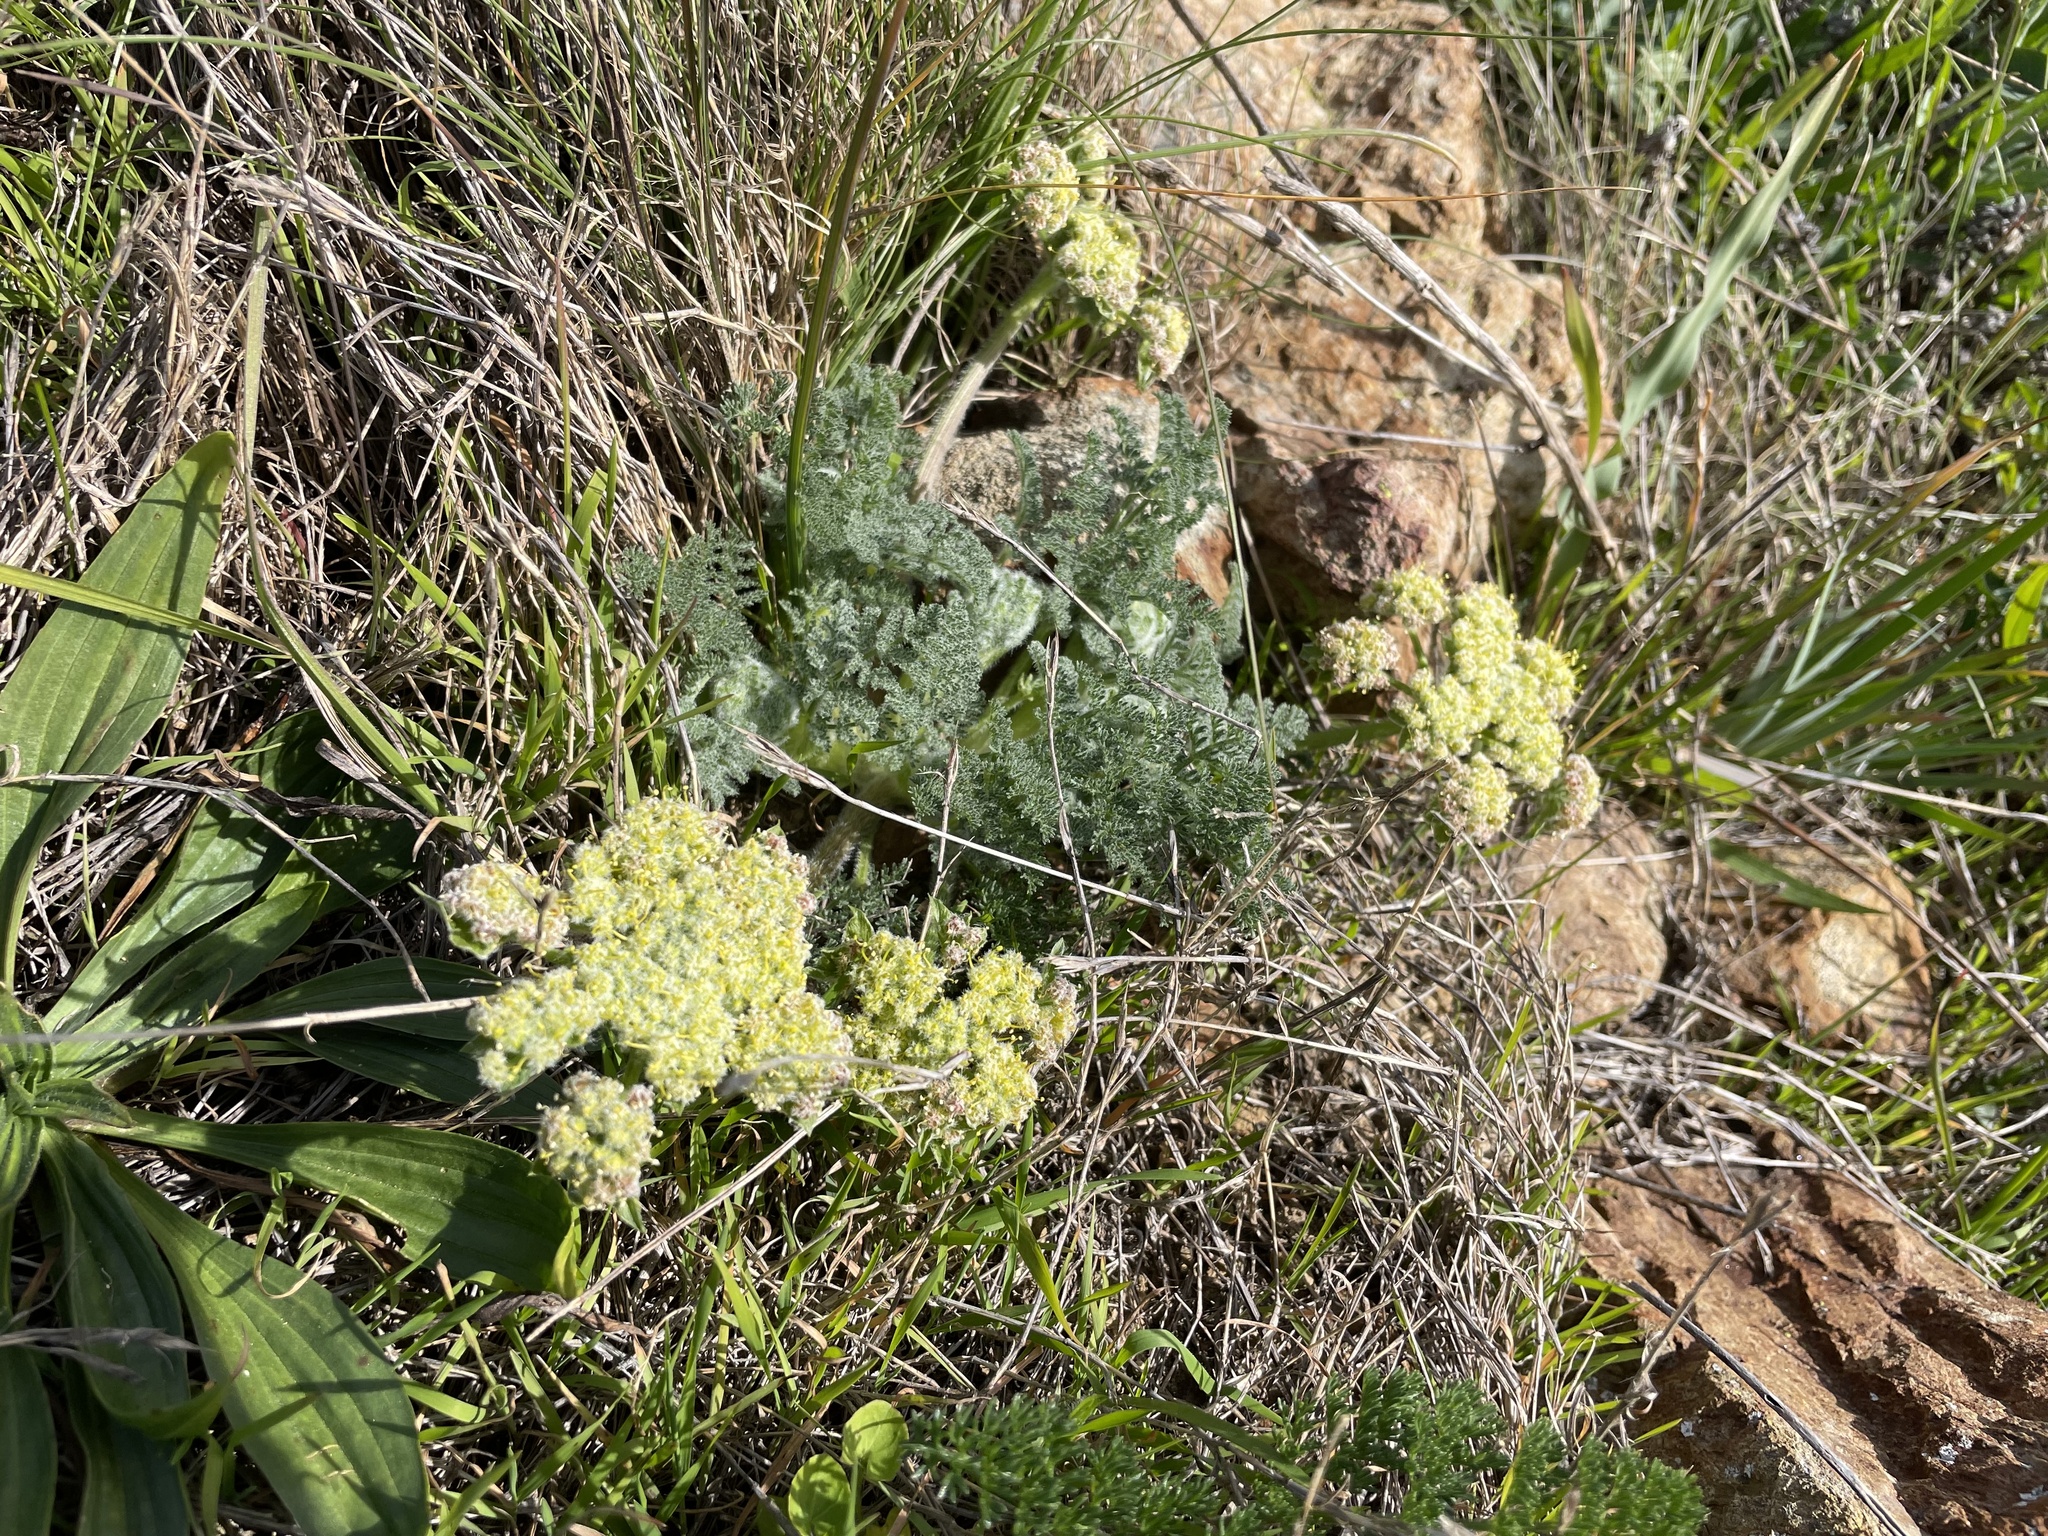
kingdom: Plantae
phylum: Tracheophyta
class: Magnoliopsida
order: Apiales
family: Apiaceae
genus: Lomatium
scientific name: Lomatium dasycarpum
